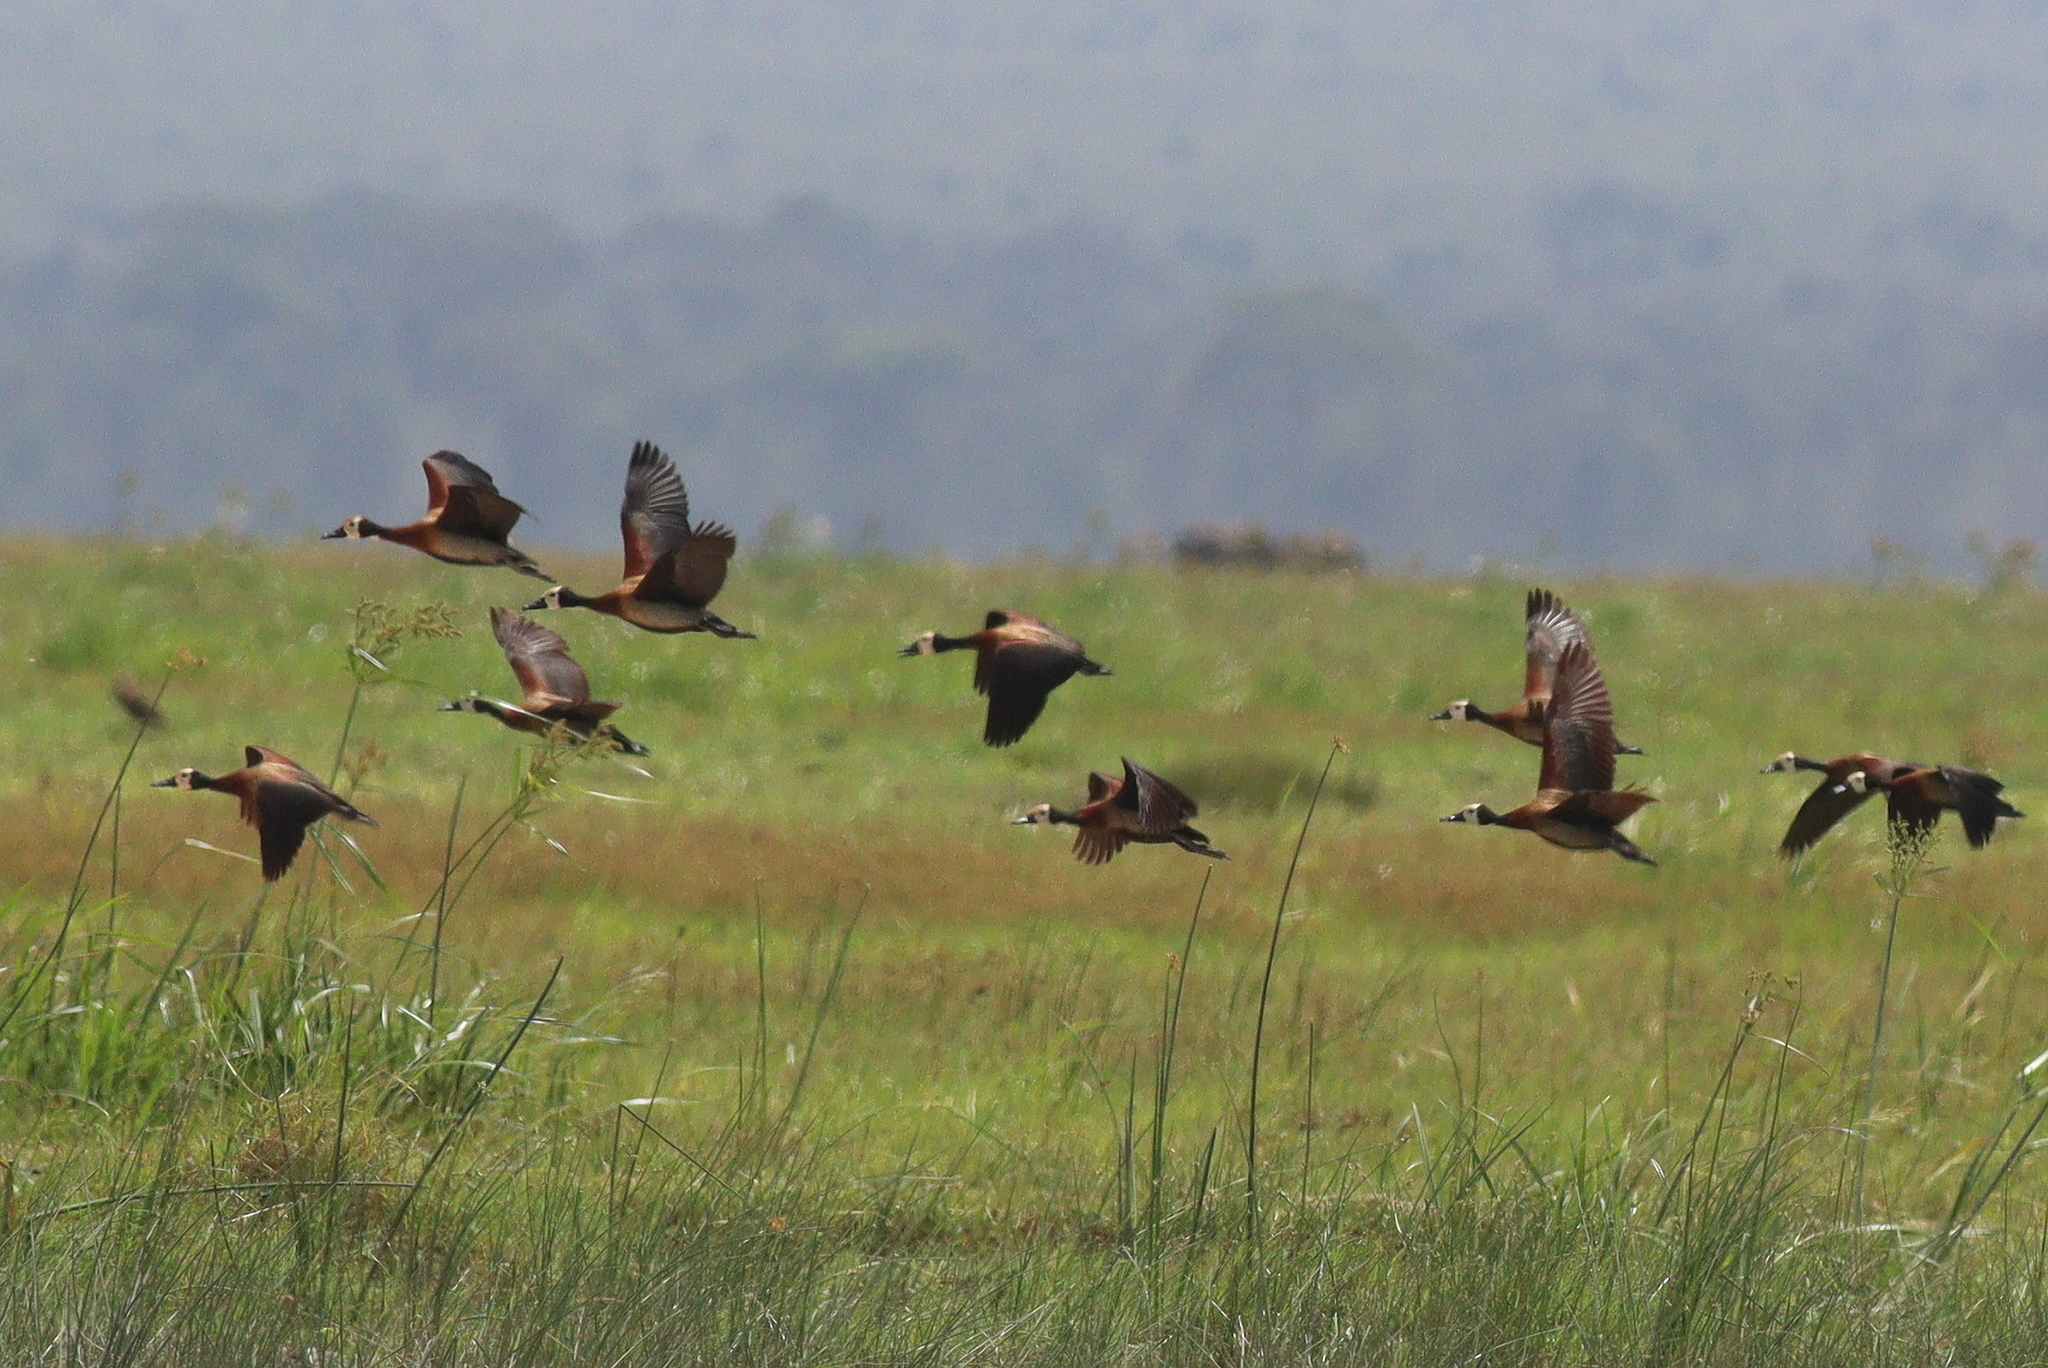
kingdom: Animalia
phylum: Chordata
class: Aves
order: Anseriformes
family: Anatidae
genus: Dendrocygna
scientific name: Dendrocygna viduata
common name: White-faced whistling duck
